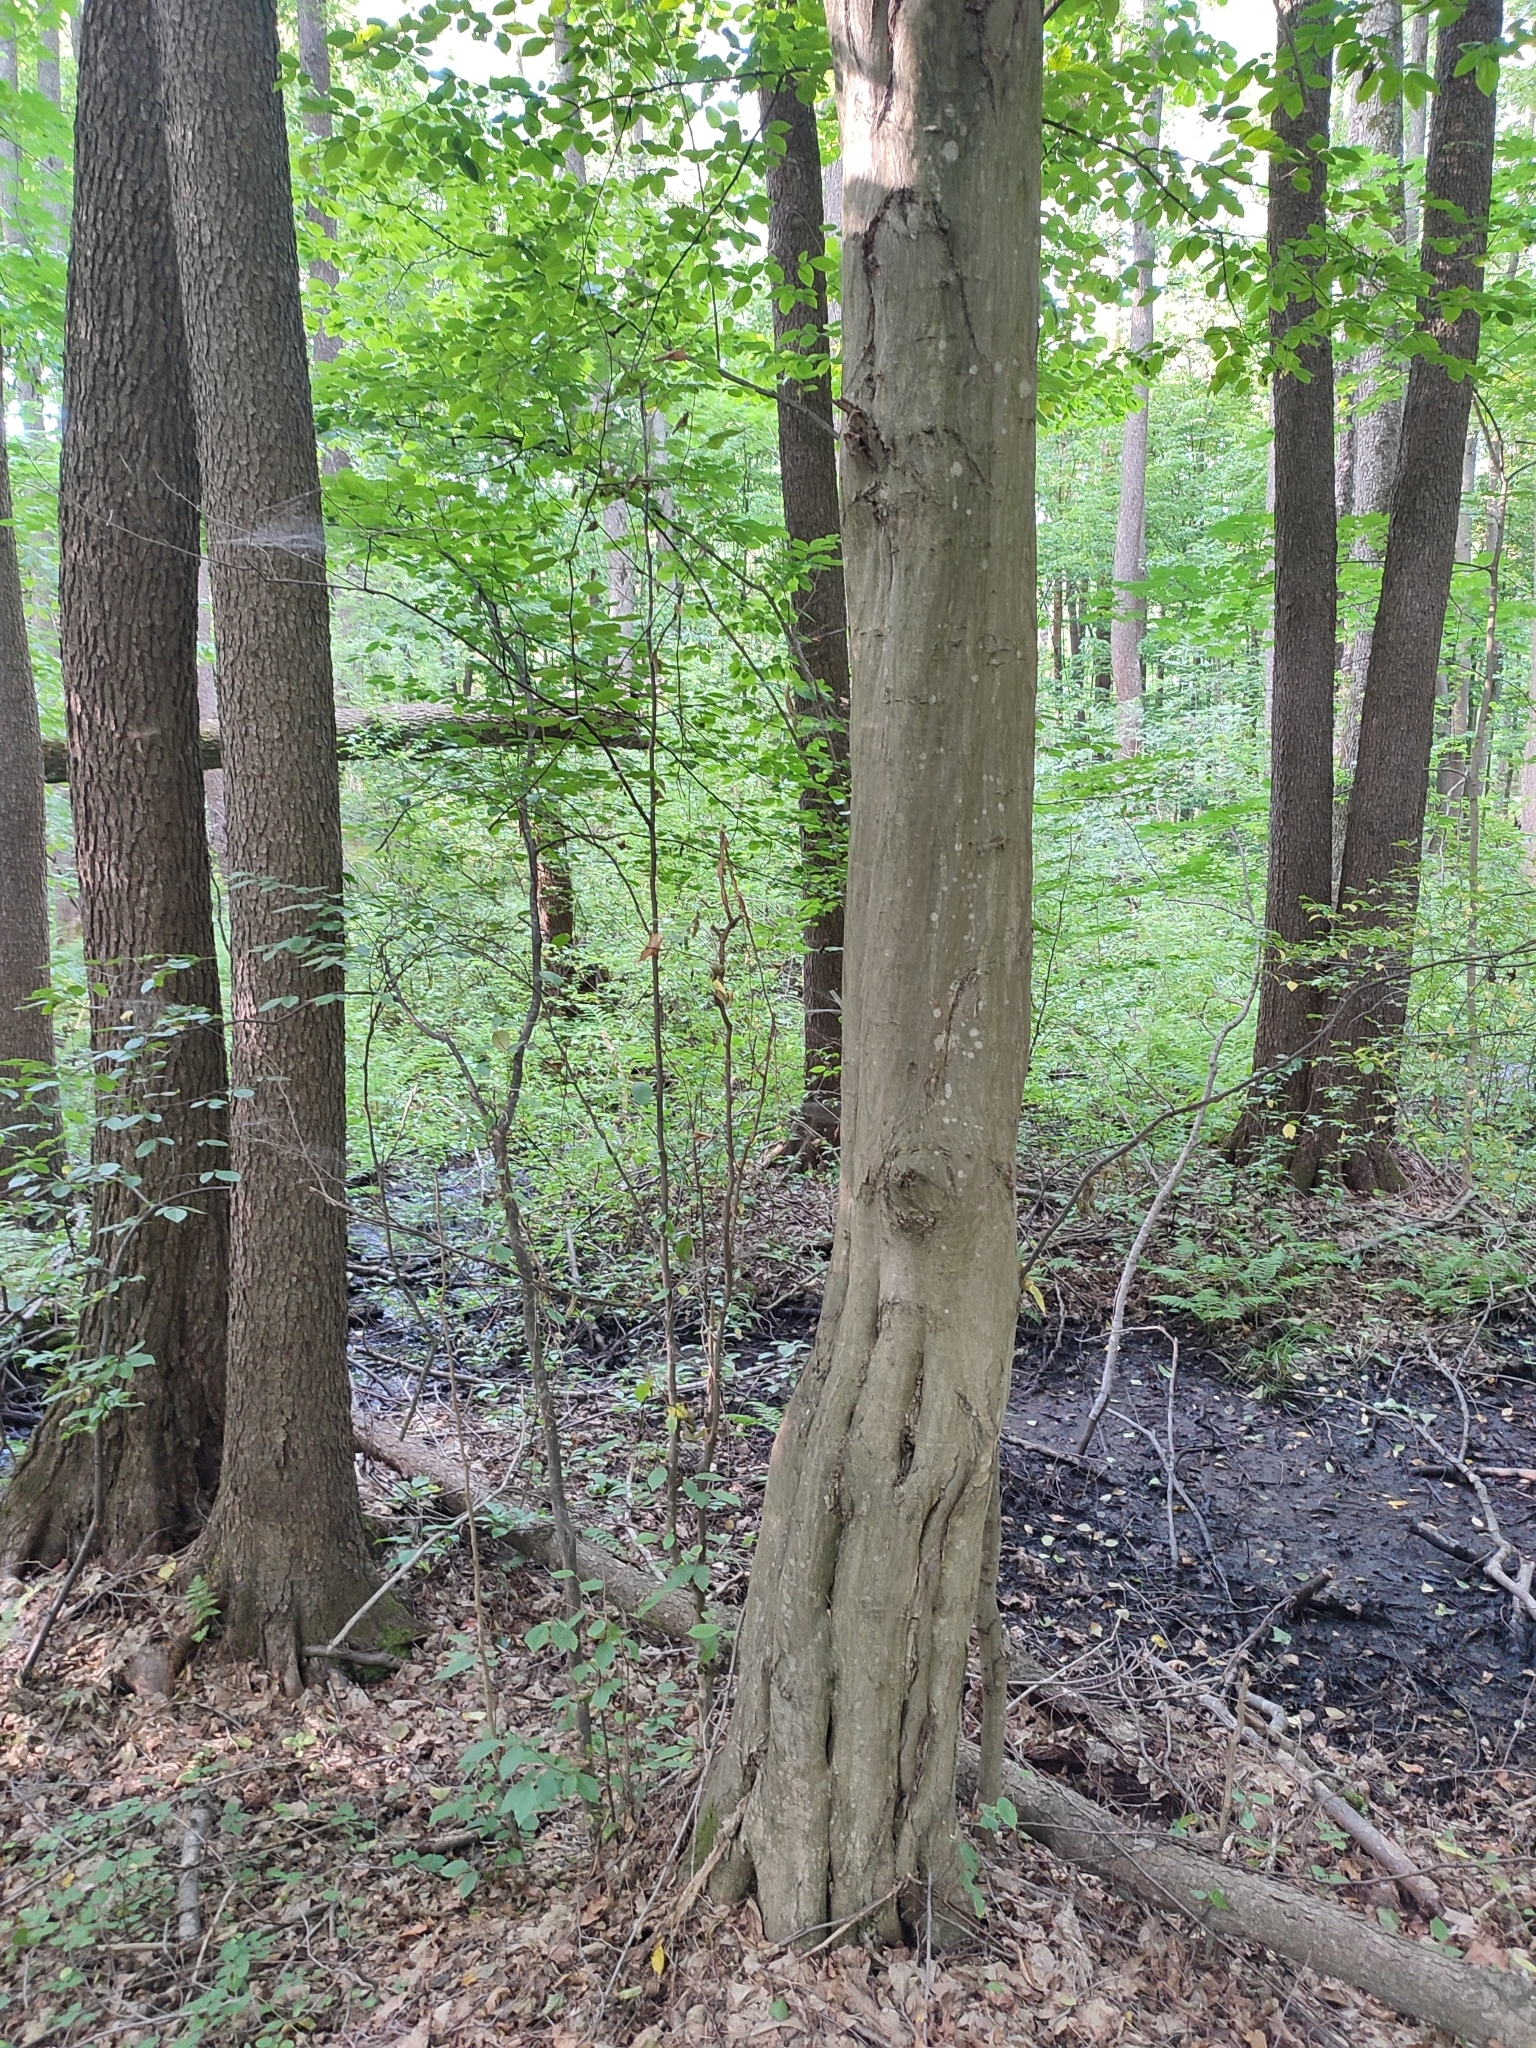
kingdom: Plantae
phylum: Tracheophyta
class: Magnoliopsida
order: Fagales
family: Betulaceae
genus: Carpinus
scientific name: Carpinus betulus
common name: Hornbeam
